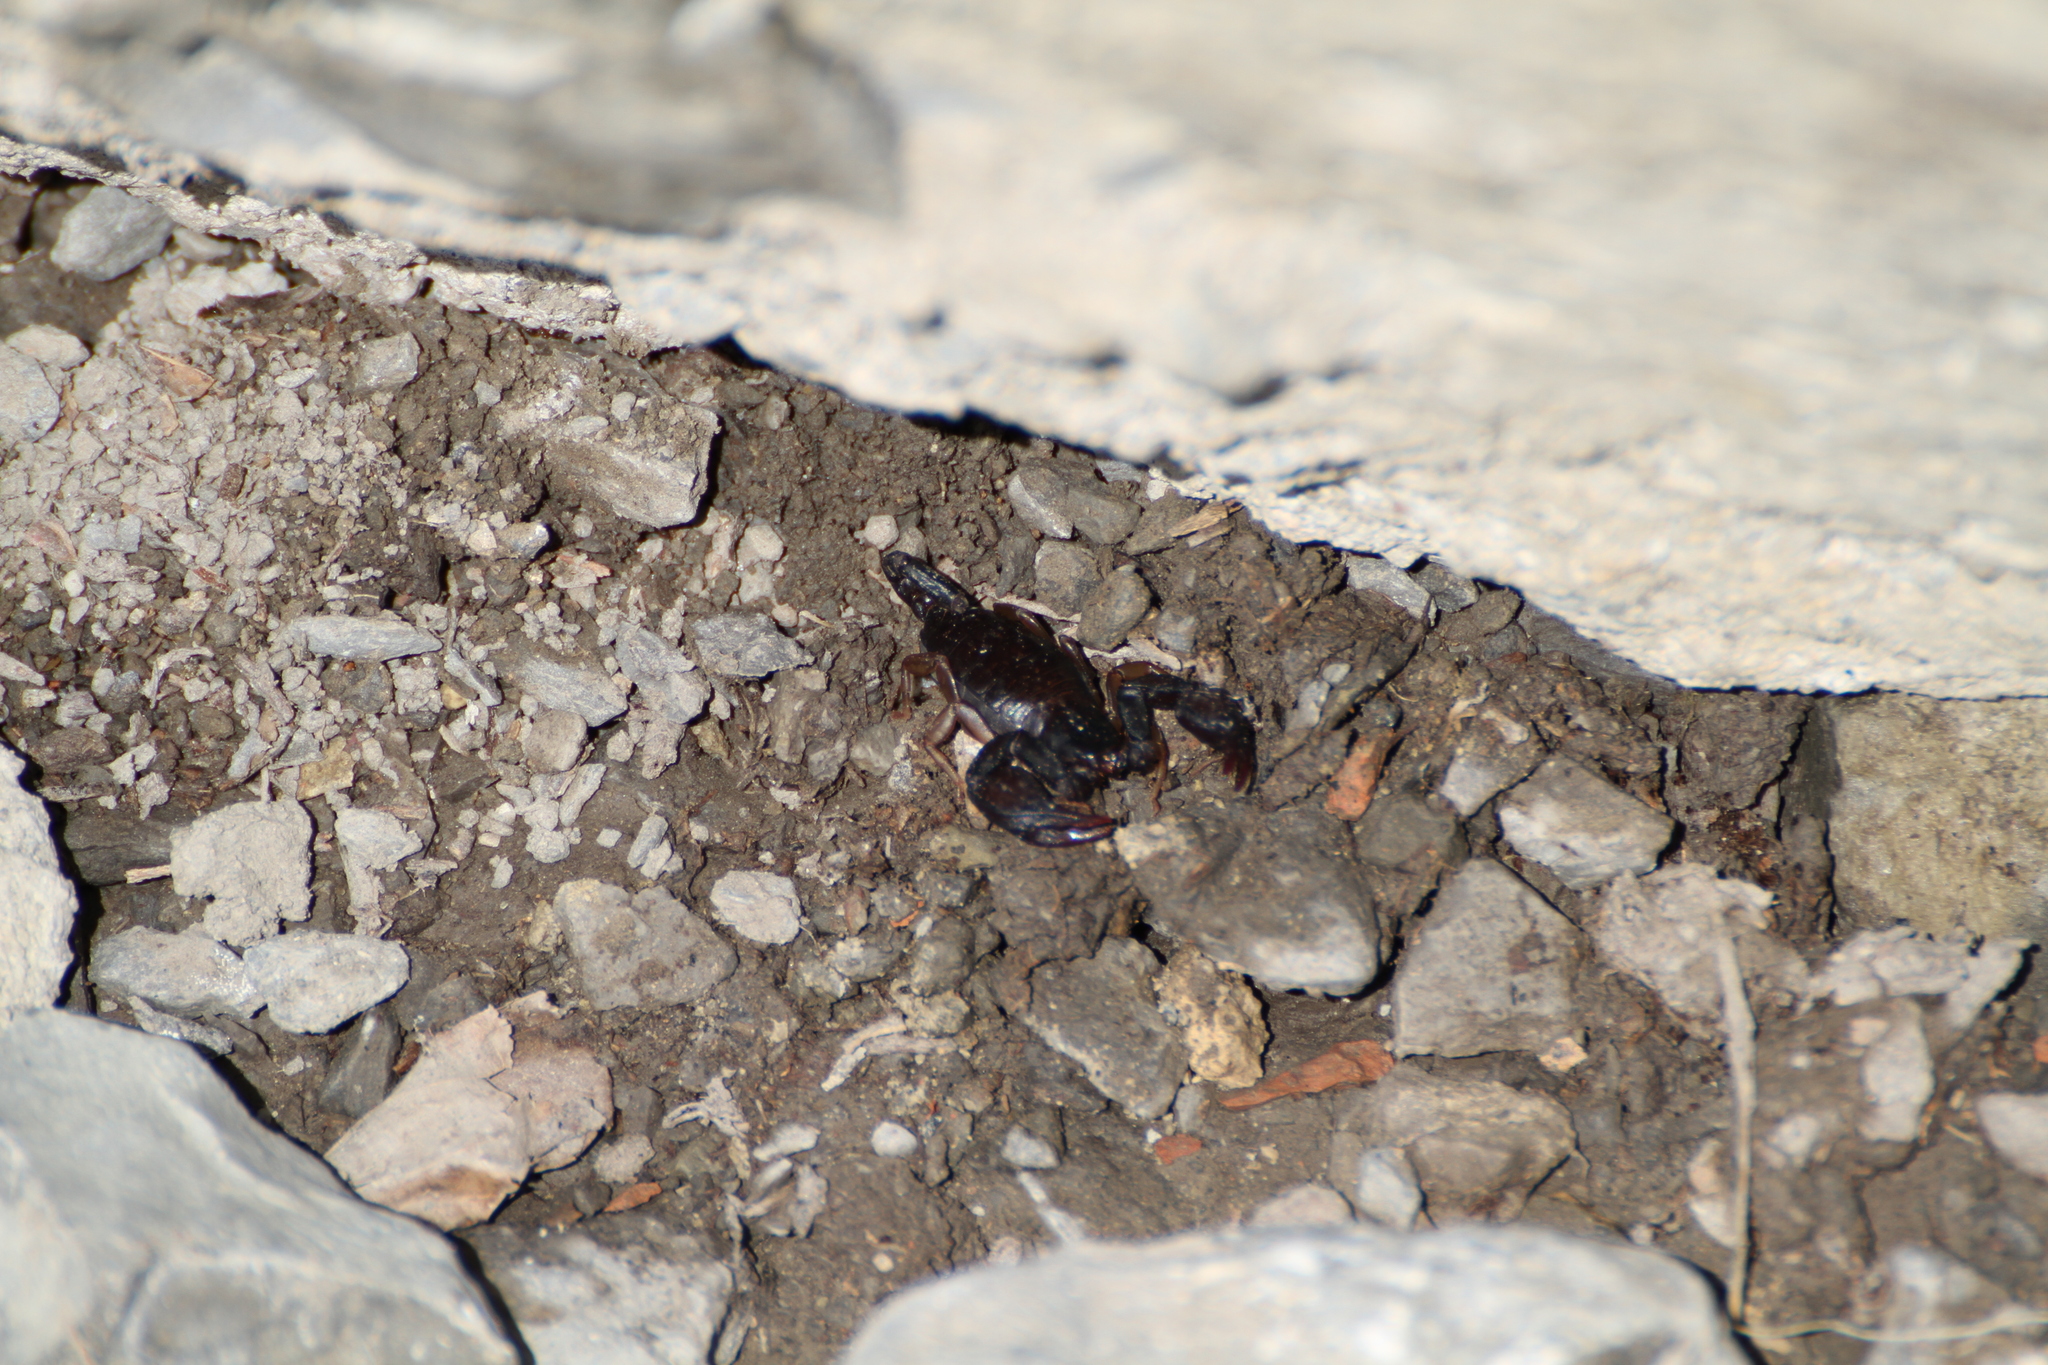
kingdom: Animalia
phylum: Arthropoda
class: Arachnida
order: Scorpiones
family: Euscorpiidae
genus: Euscorpius
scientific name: Euscorpius
